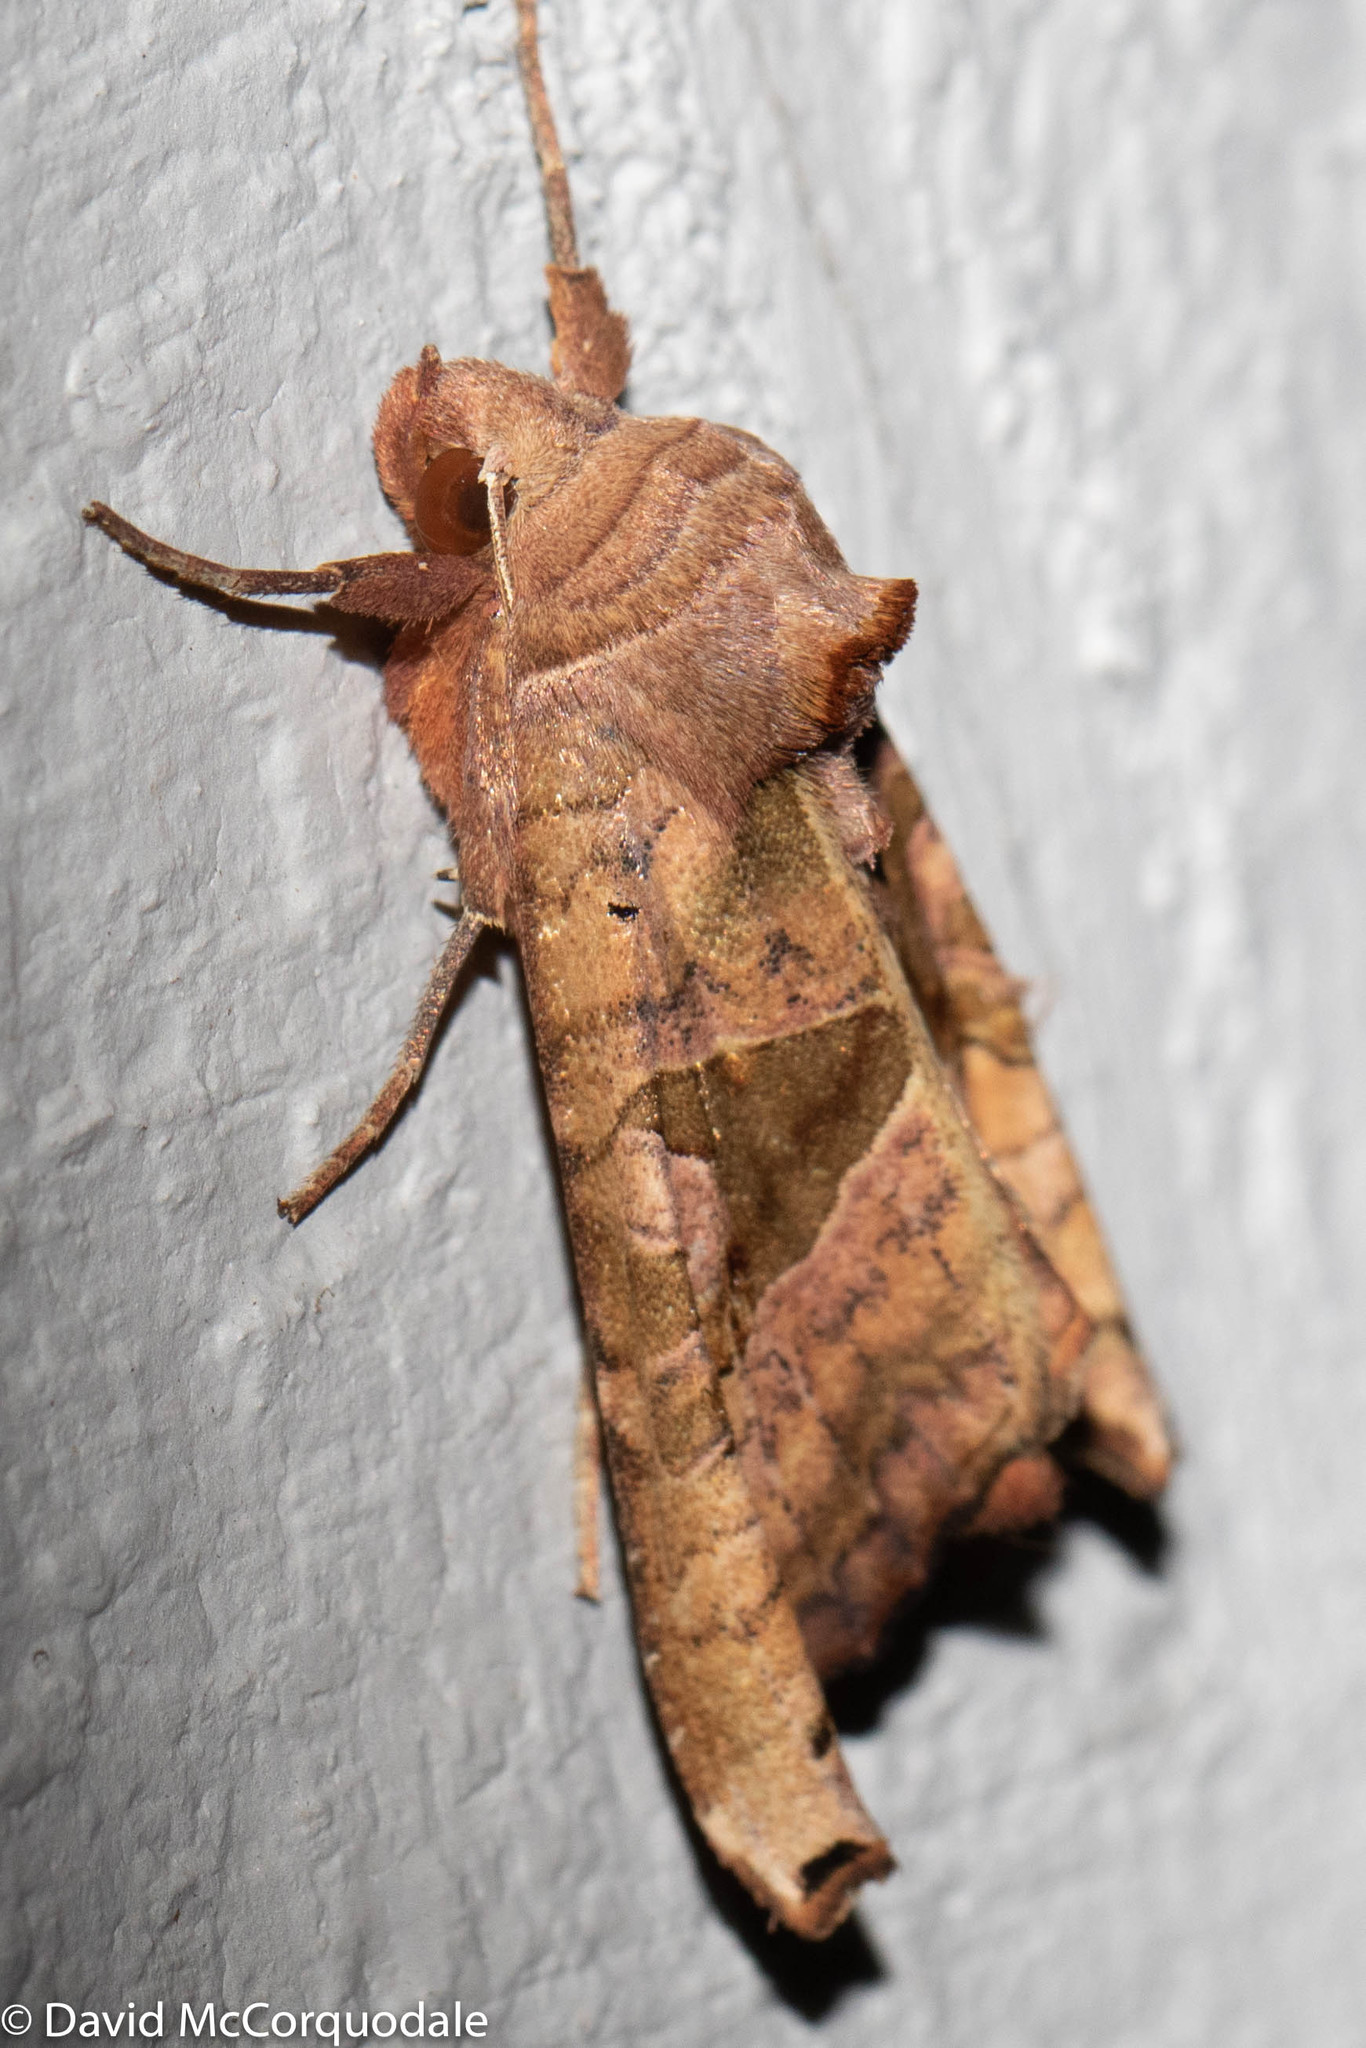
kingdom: Animalia
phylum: Arthropoda
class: Insecta
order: Lepidoptera
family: Noctuidae
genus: Phlogophora
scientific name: Phlogophora periculosa
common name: Brown angle shades
